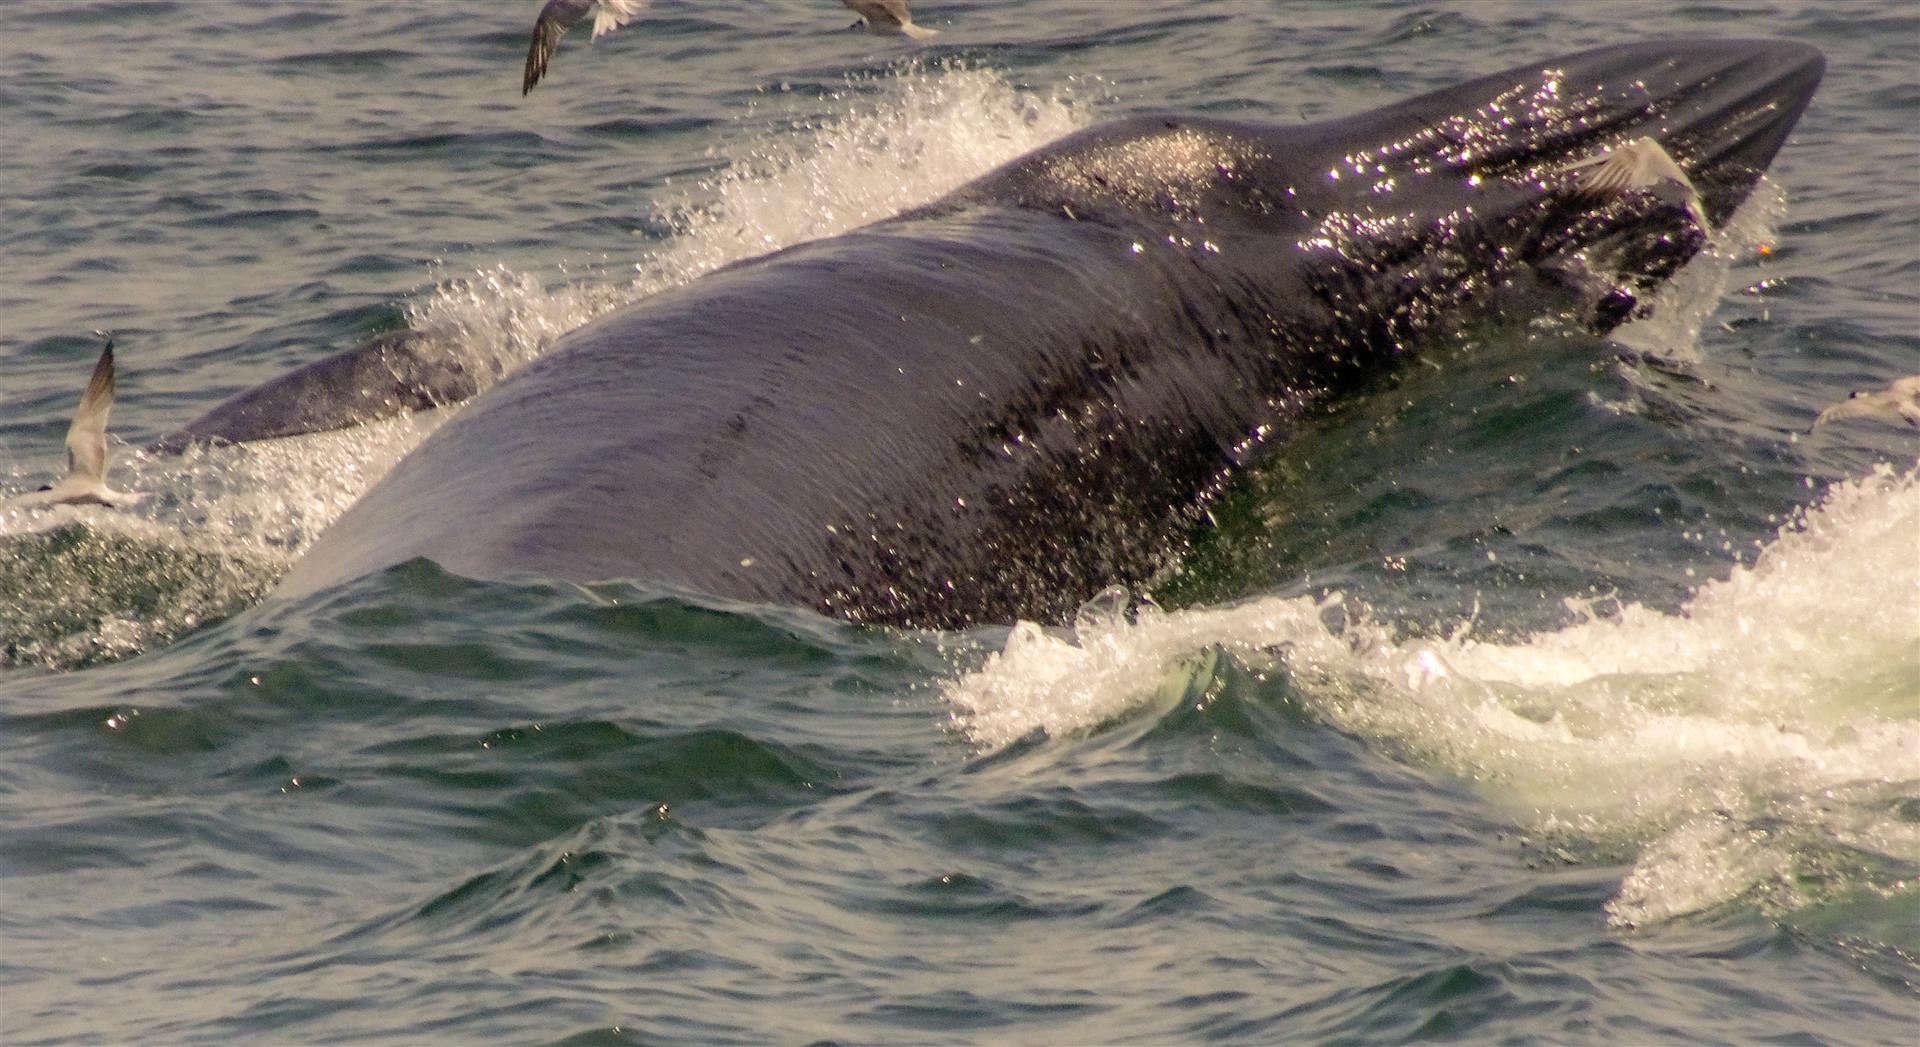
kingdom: Animalia
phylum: Chordata
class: Mammalia
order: Cetacea
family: Balaenopteridae
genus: Balaenoptera
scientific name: Balaenoptera edeni
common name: Bryde's whale
